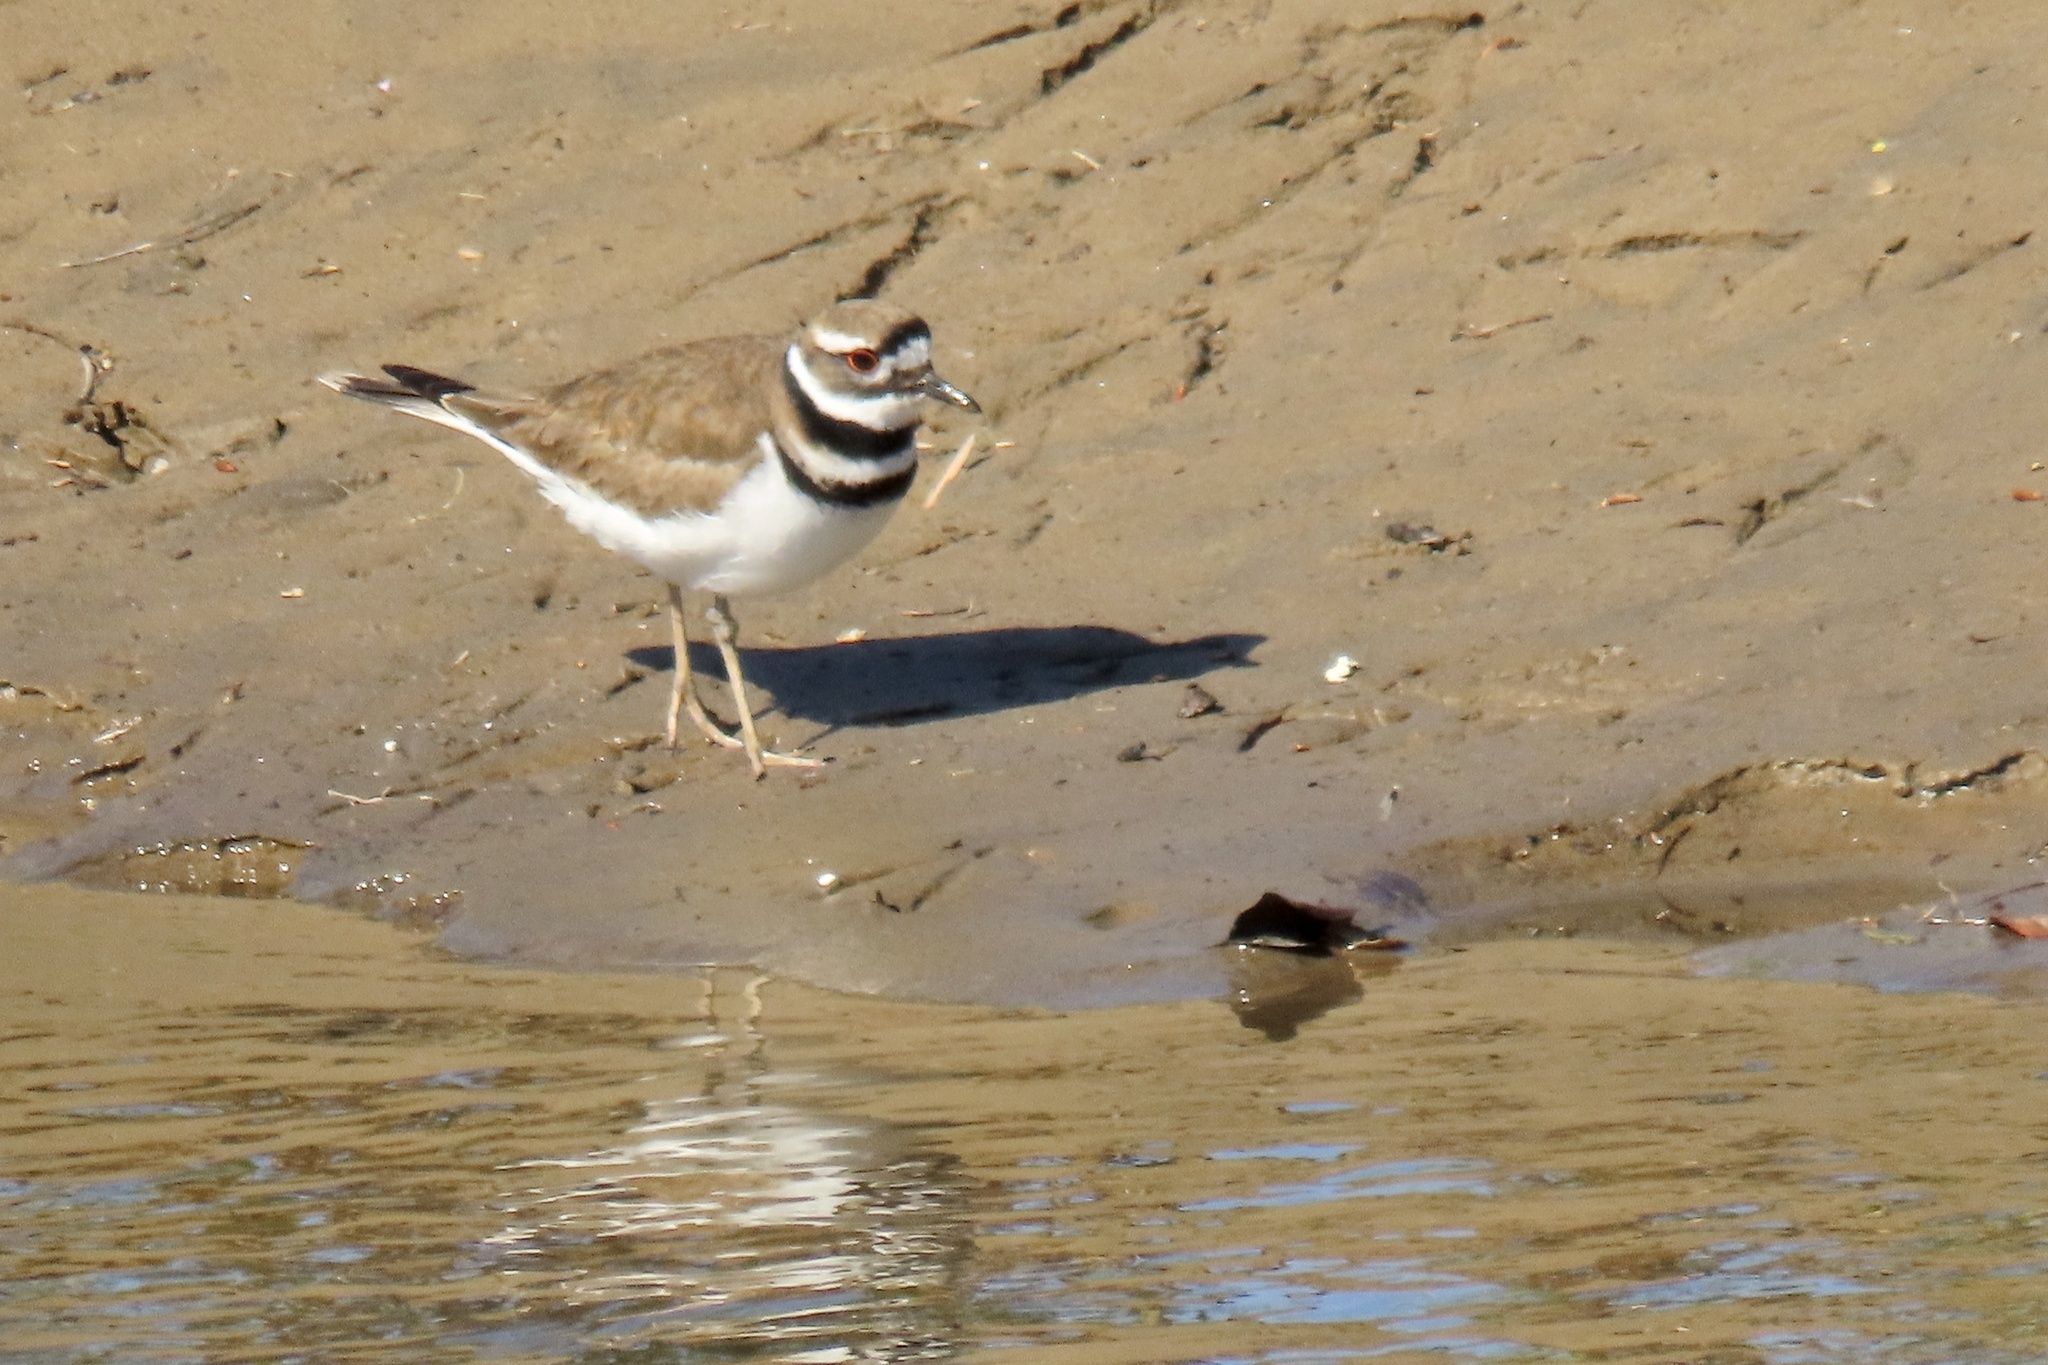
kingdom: Animalia
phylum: Chordata
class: Aves
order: Charadriiformes
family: Charadriidae
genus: Charadrius
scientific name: Charadrius vociferus
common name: Killdeer
